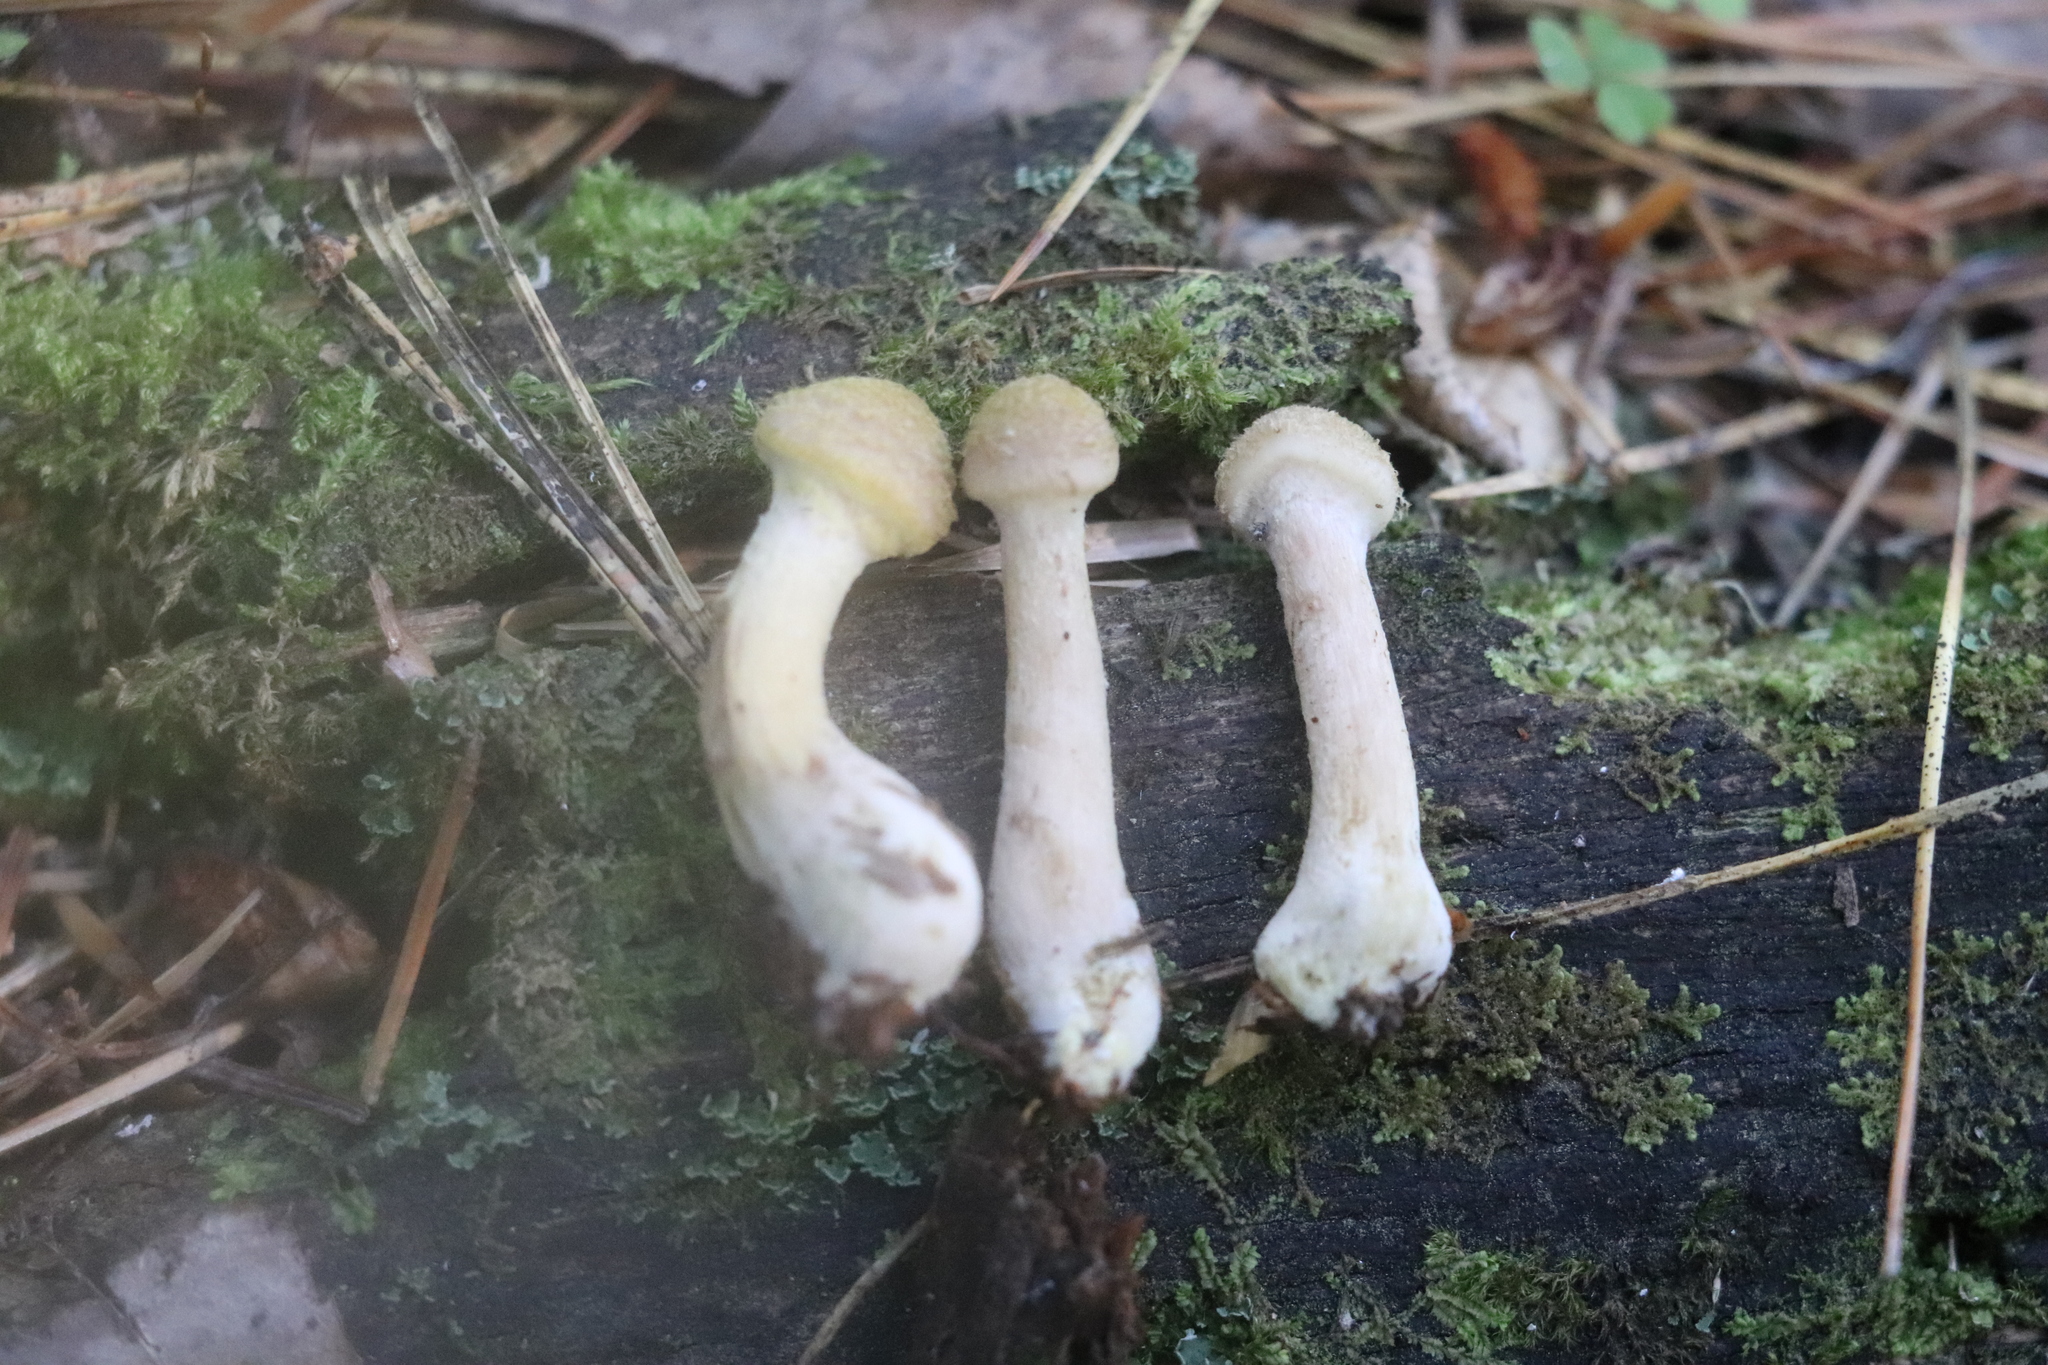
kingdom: Fungi
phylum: Basidiomycota
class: Agaricomycetes
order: Agaricales
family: Physalacriaceae
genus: Armillaria
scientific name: Armillaria cepistipes
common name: Mullet honey fungus
